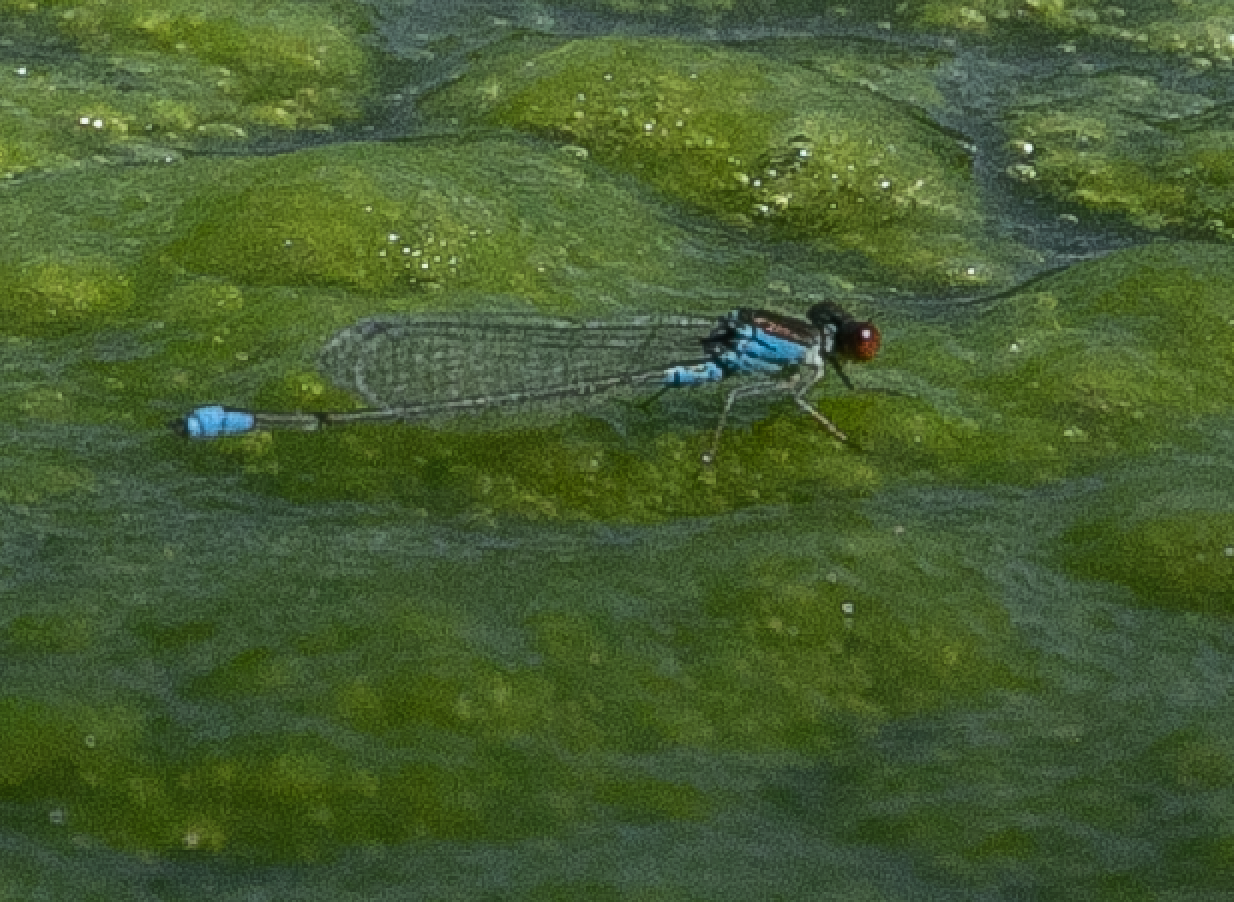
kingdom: Animalia
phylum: Arthropoda
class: Insecta
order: Odonata
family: Coenagrionidae
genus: Erythromma
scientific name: Erythromma viridulum
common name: Small red-eyed damselfly
